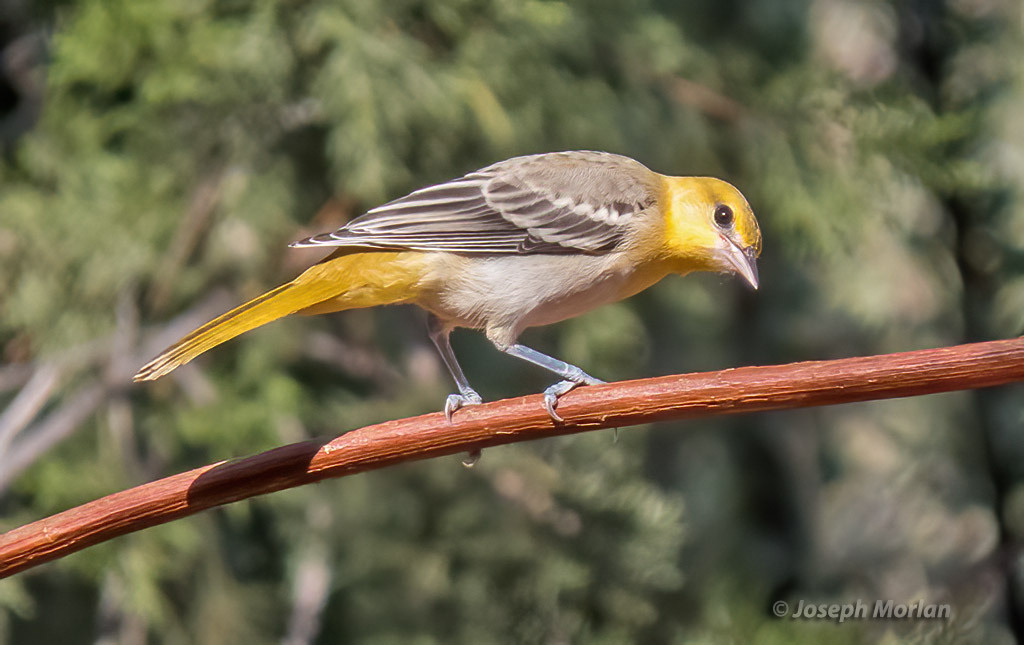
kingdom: Animalia
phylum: Chordata
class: Aves
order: Passeriformes
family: Icteridae
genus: Icterus
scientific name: Icterus bullockii
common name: Bullock's oriole
